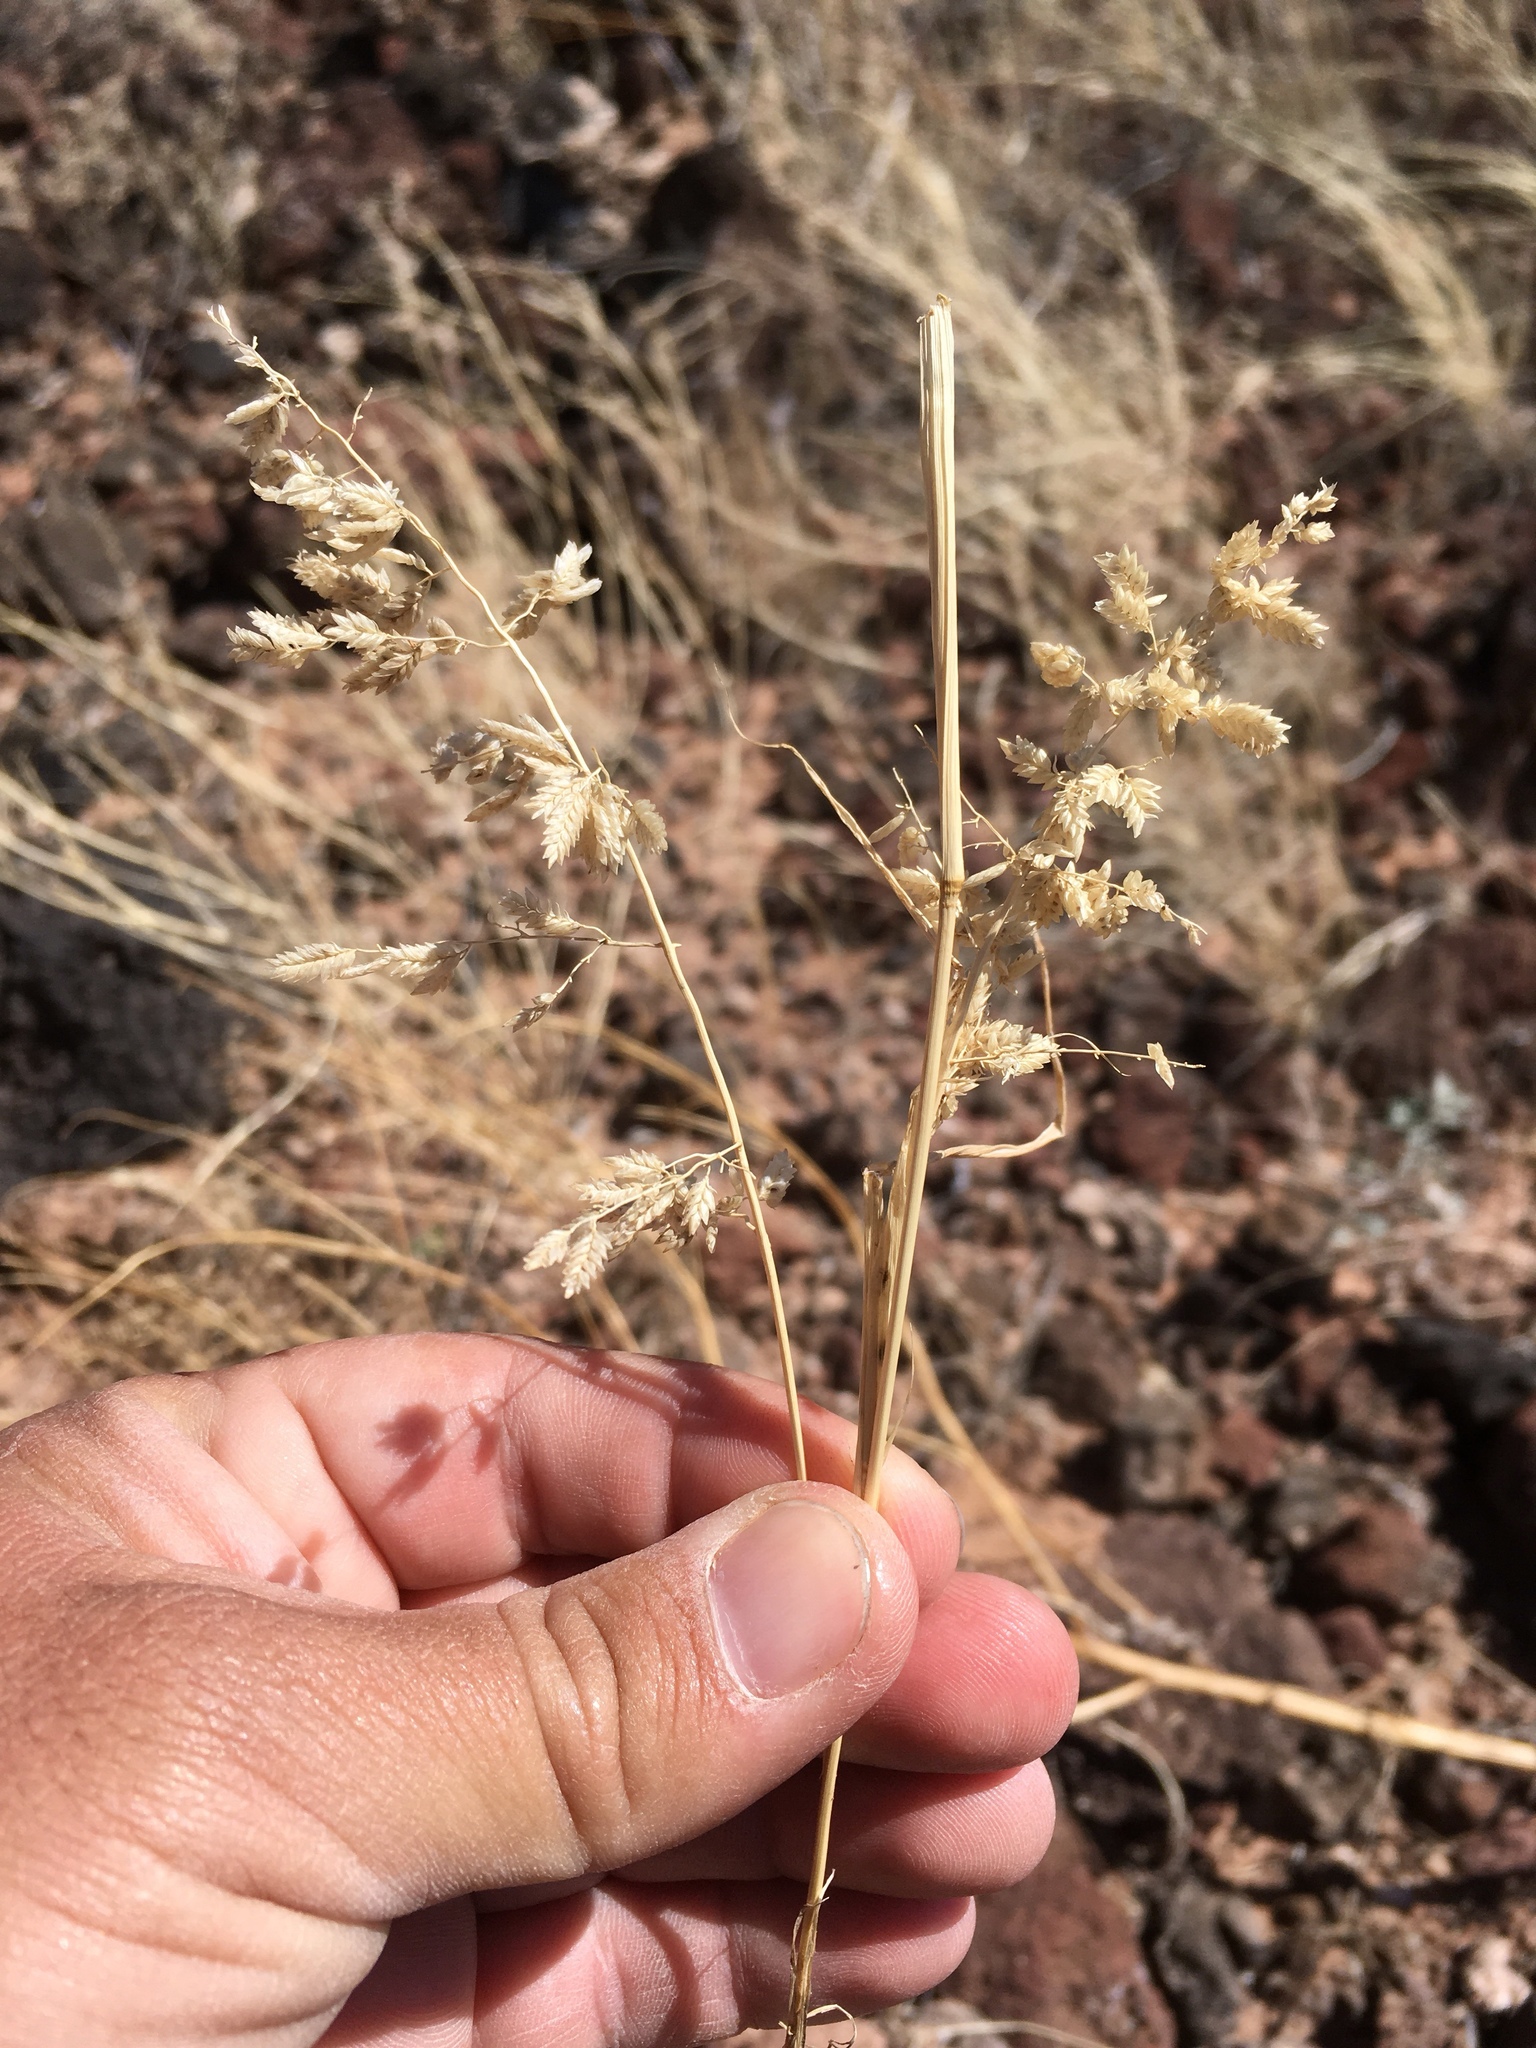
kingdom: Plantae
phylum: Tracheophyta
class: Liliopsida
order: Poales
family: Poaceae
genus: Eragrostis
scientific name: Eragrostis cilianensis
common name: Stinkgrass
